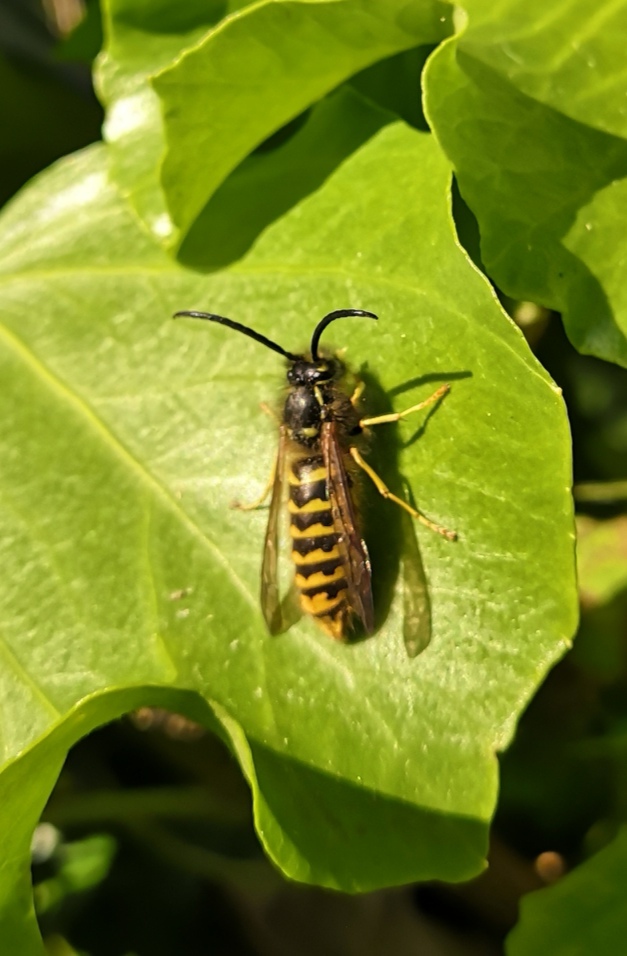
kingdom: Animalia
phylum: Arthropoda
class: Insecta
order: Hymenoptera
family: Vespidae
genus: Vespula
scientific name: Vespula vulgaris
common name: Common wasp
